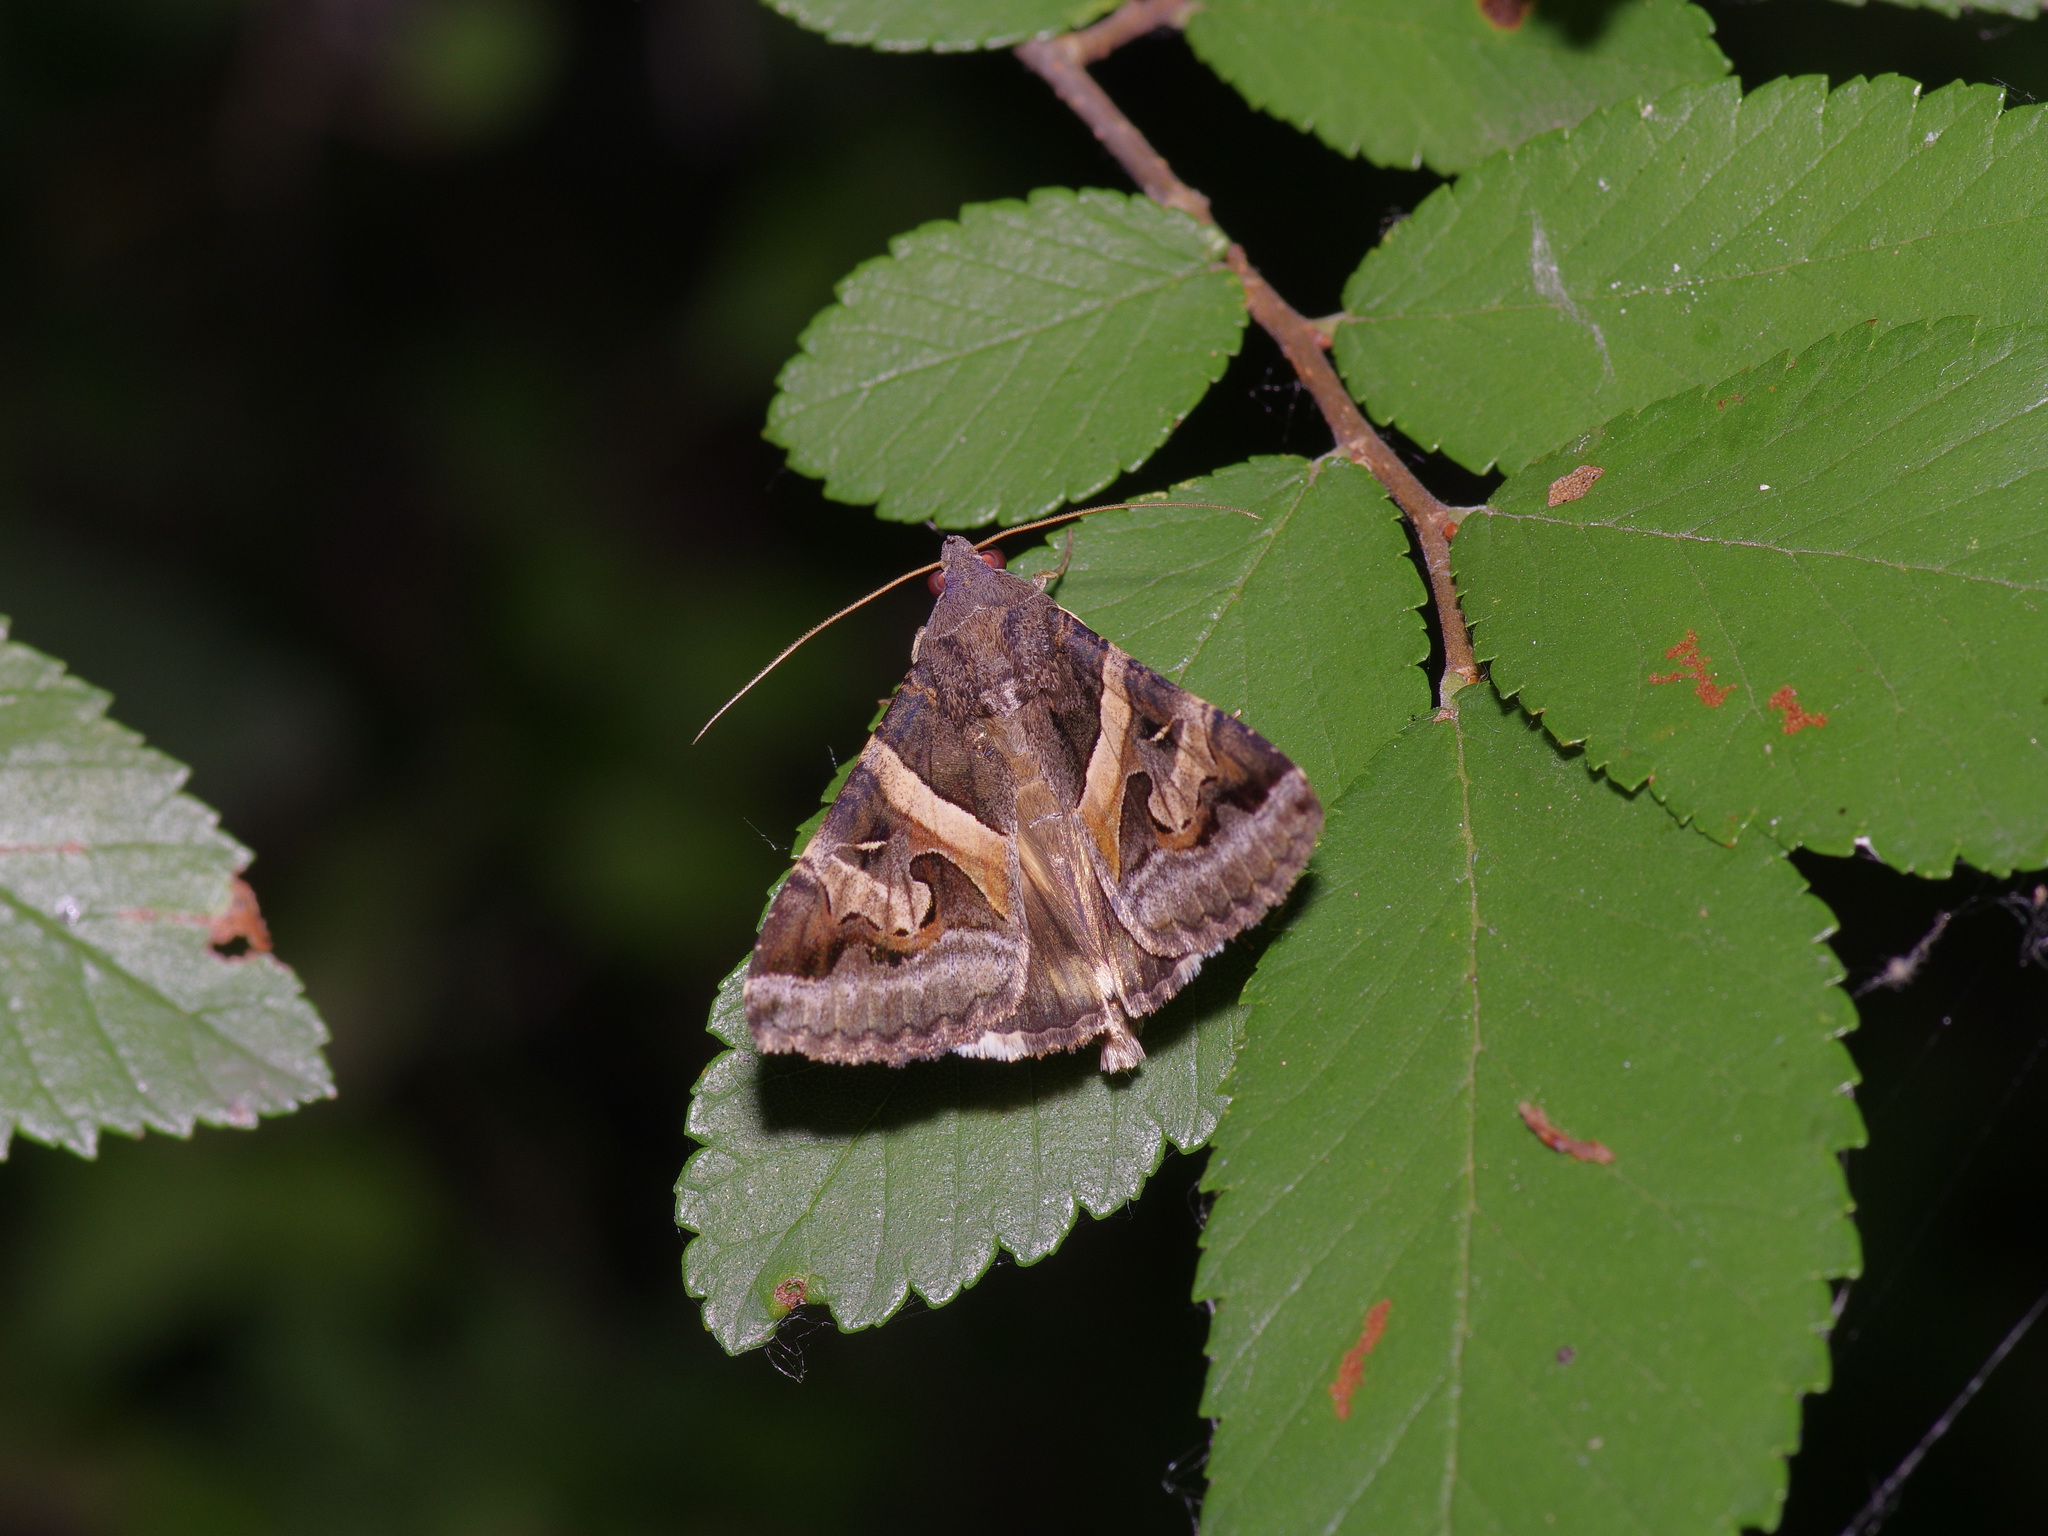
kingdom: Animalia
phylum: Arthropoda
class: Insecta
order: Lepidoptera
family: Erebidae
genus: Melipotis
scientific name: Melipotis indomita
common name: Moth
